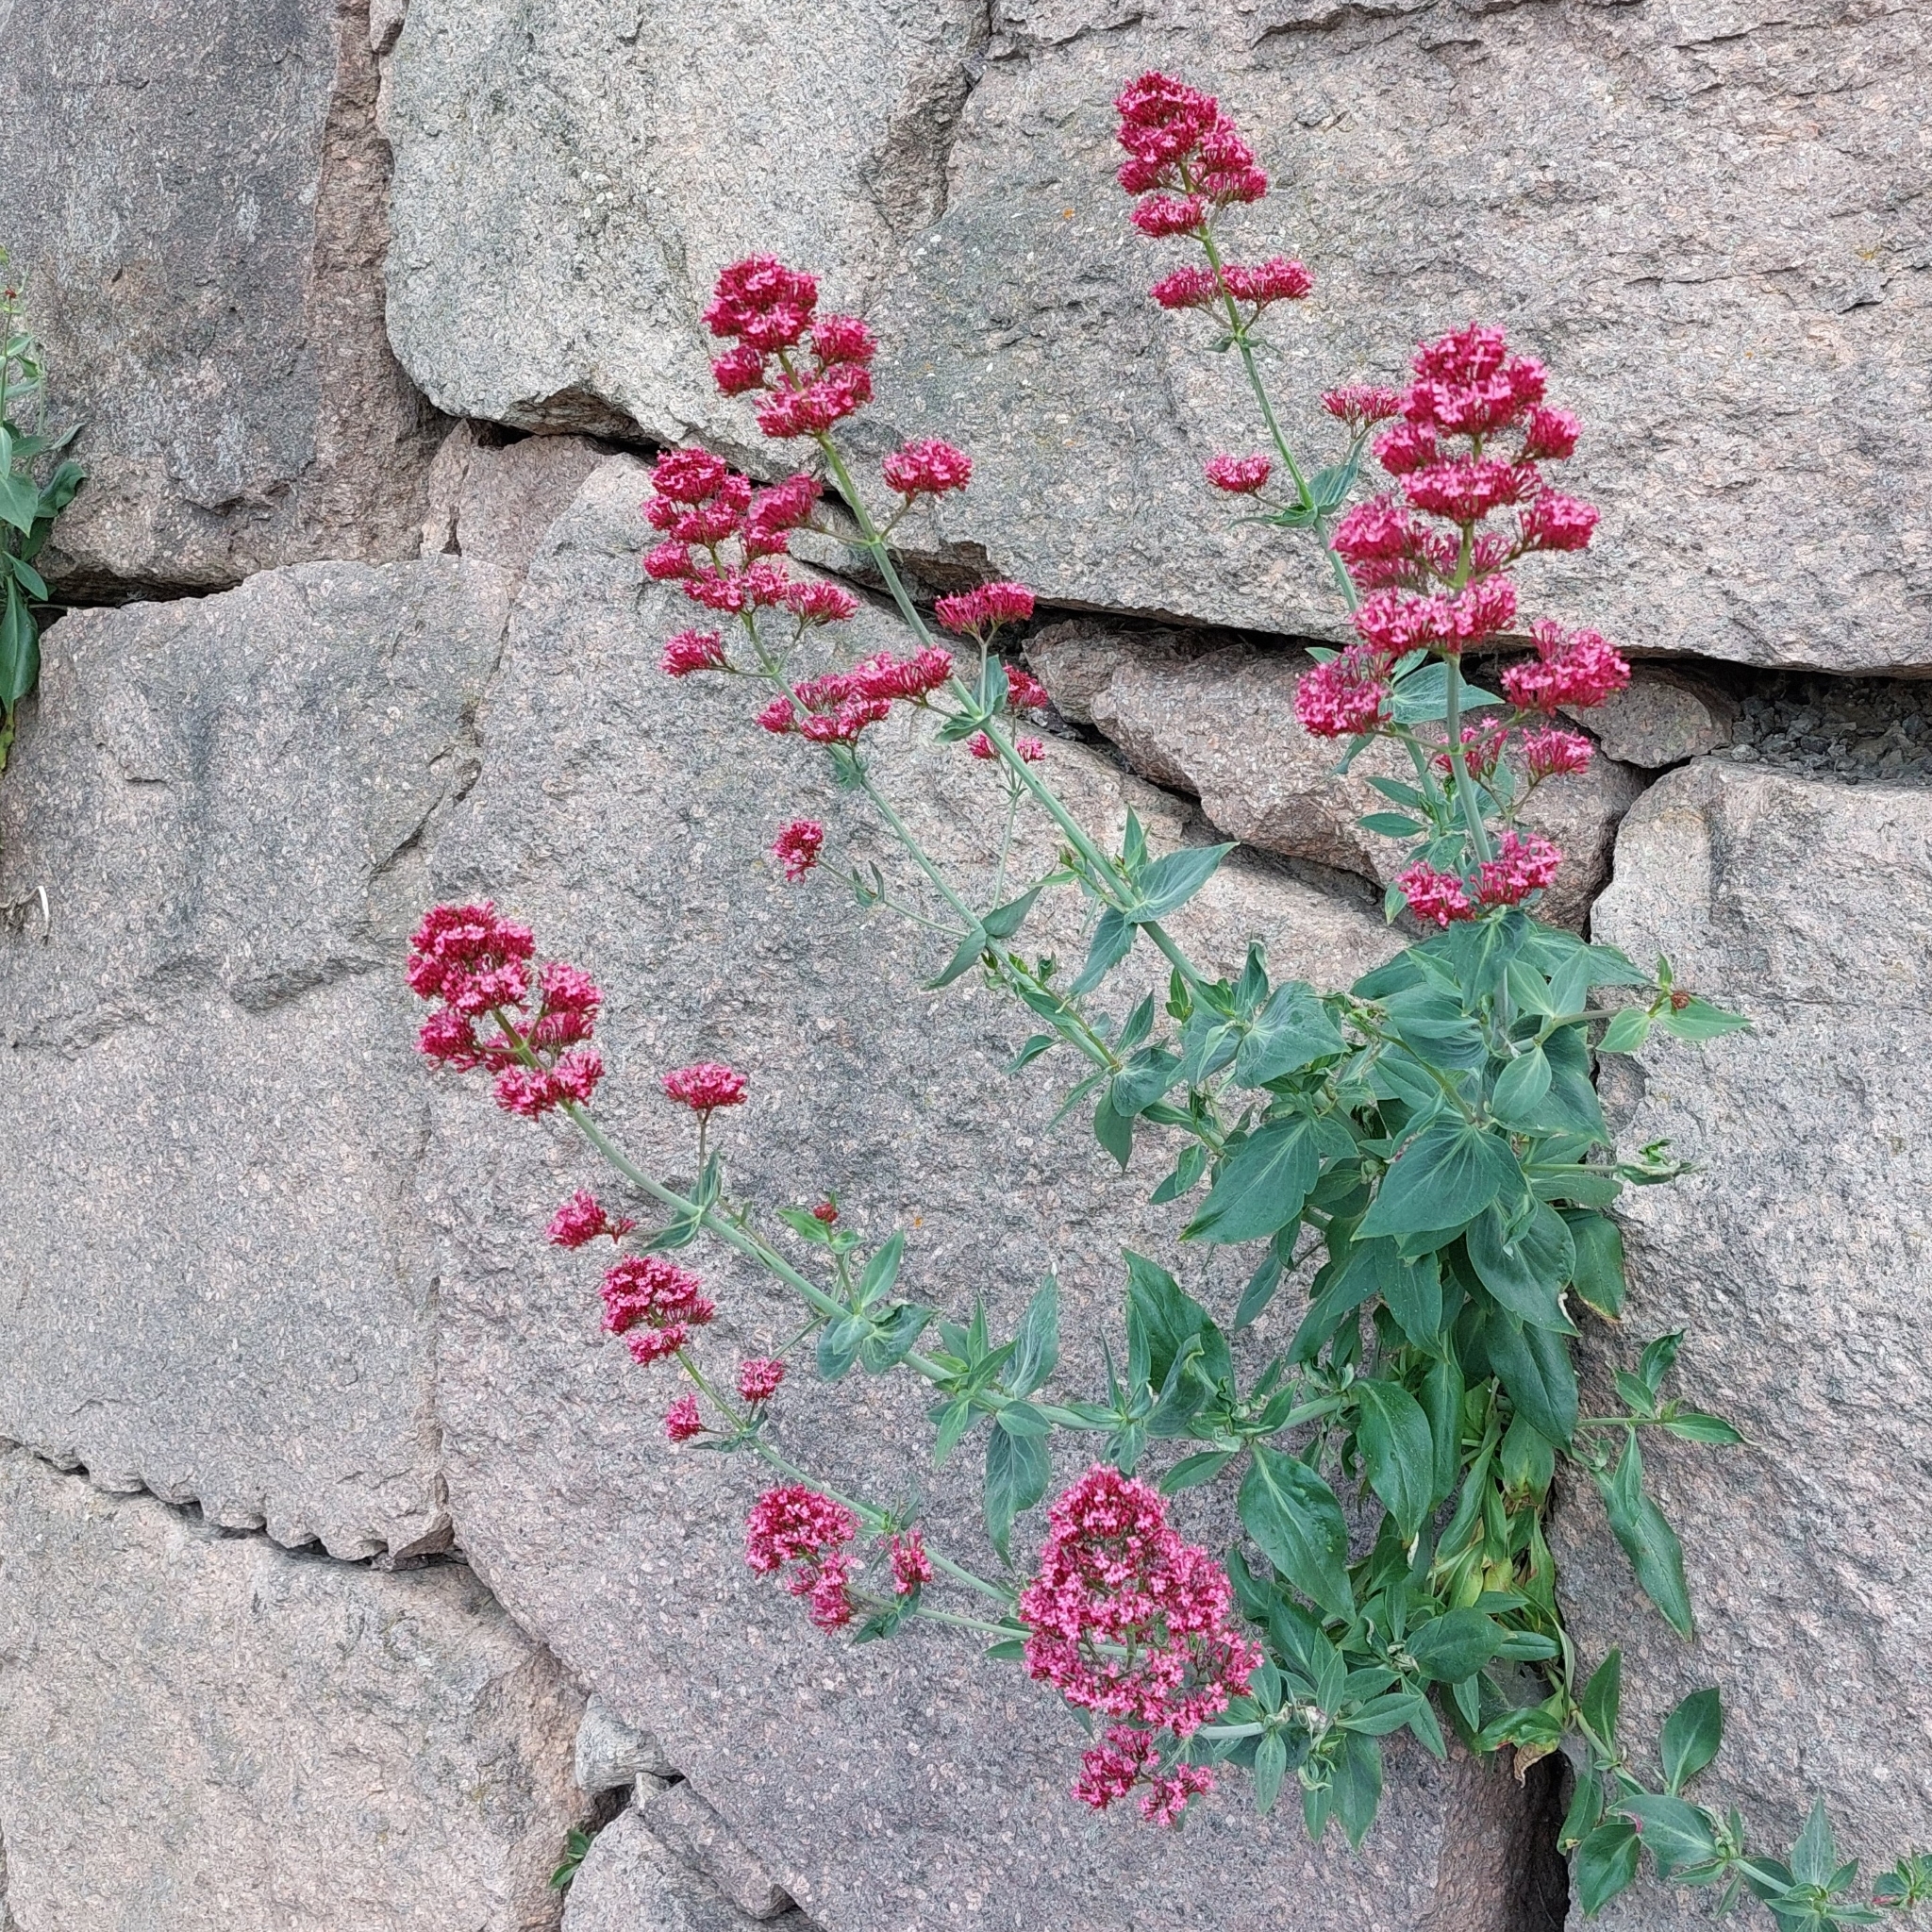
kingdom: Plantae
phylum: Tracheophyta
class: Magnoliopsida
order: Dipsacales
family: Caprifoliaceae
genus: Centranthus
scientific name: Centranthus ruber
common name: Red valerian
